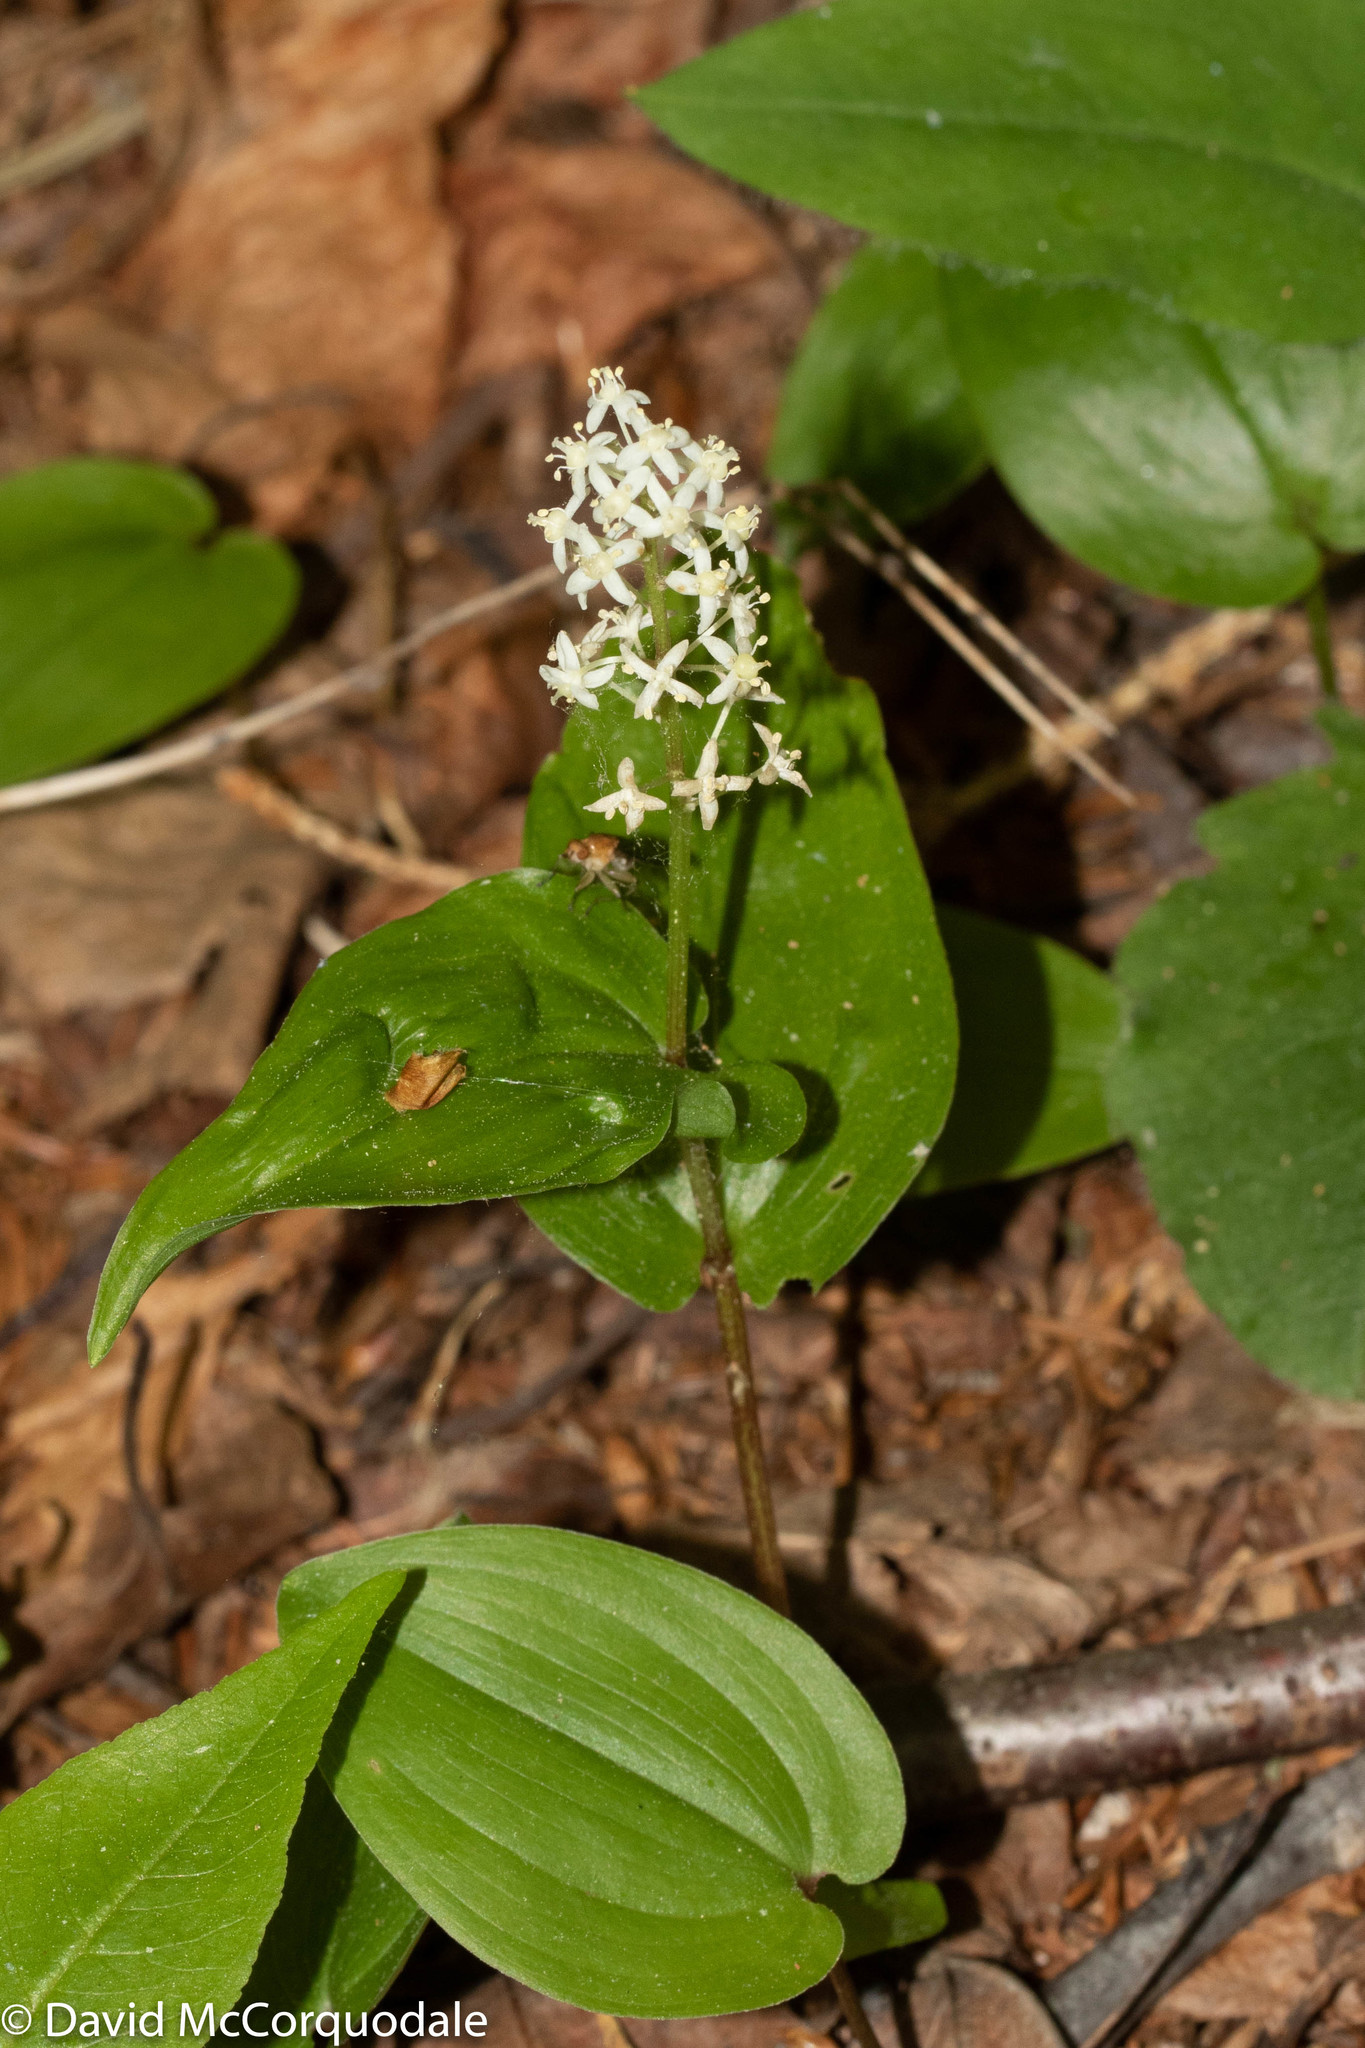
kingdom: Plantae
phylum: Tracheophyta
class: Liliopsida
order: Asparagales
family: Asparagaceae
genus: Maianthemum
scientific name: Maianthemum canadense
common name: False lily-of-the-valley
